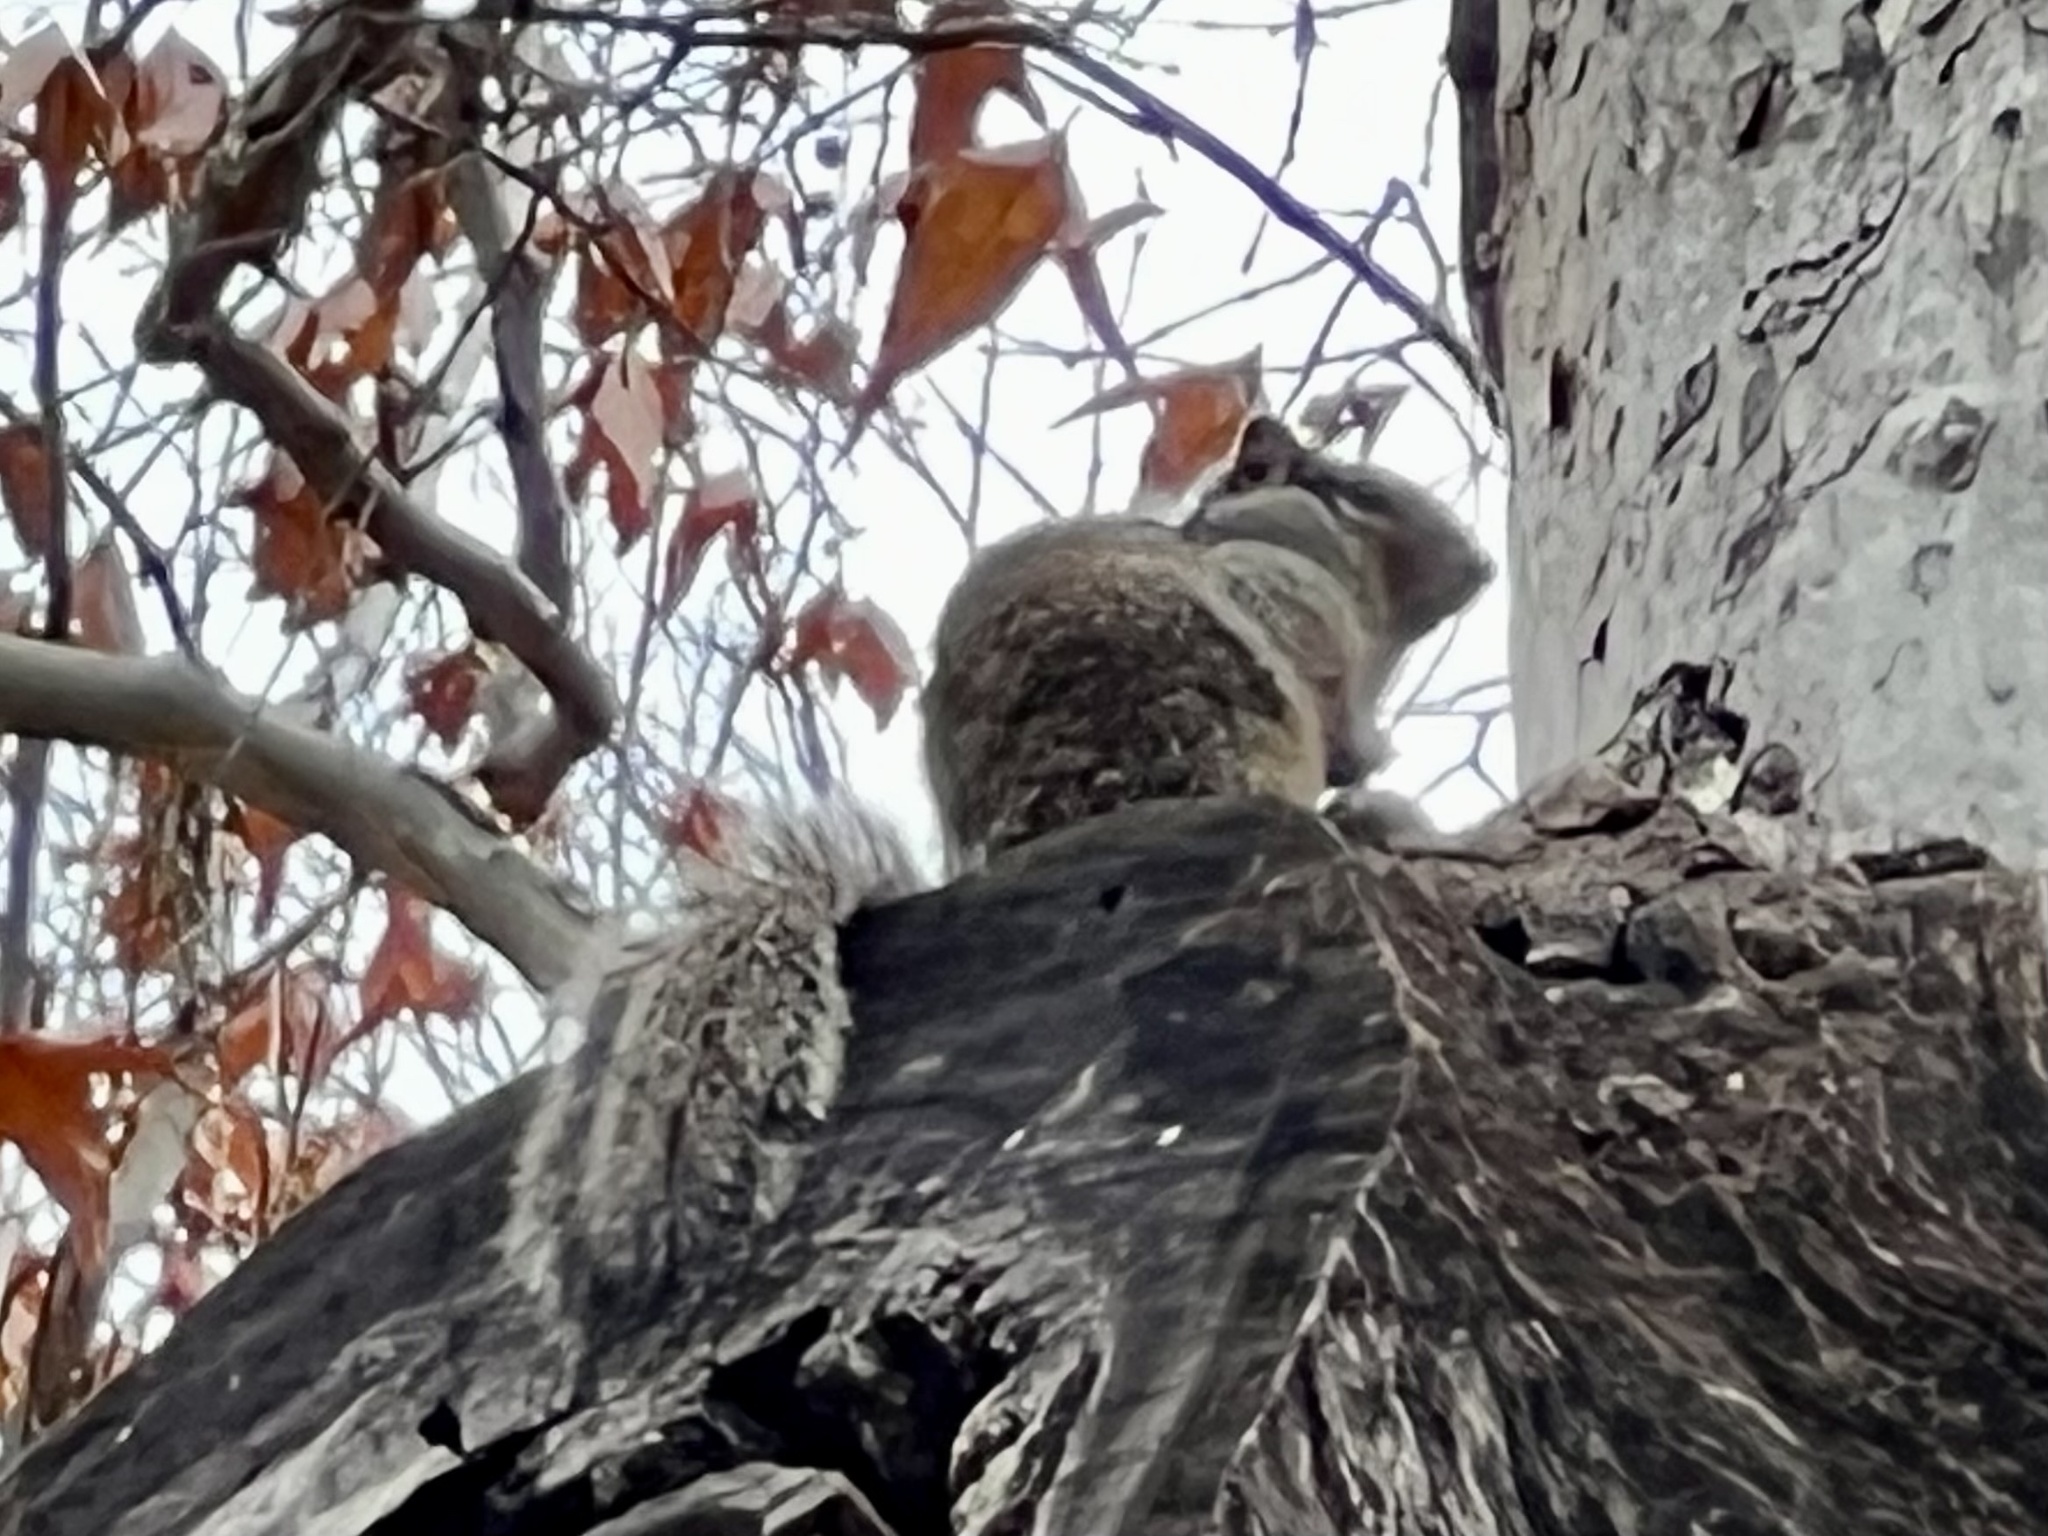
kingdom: Animalia
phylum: Chordata
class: Mammalia
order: Rodentia
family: Sciuridae
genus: Otospermophilus
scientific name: Otospermophilus variegatus
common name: Rock squirrel
